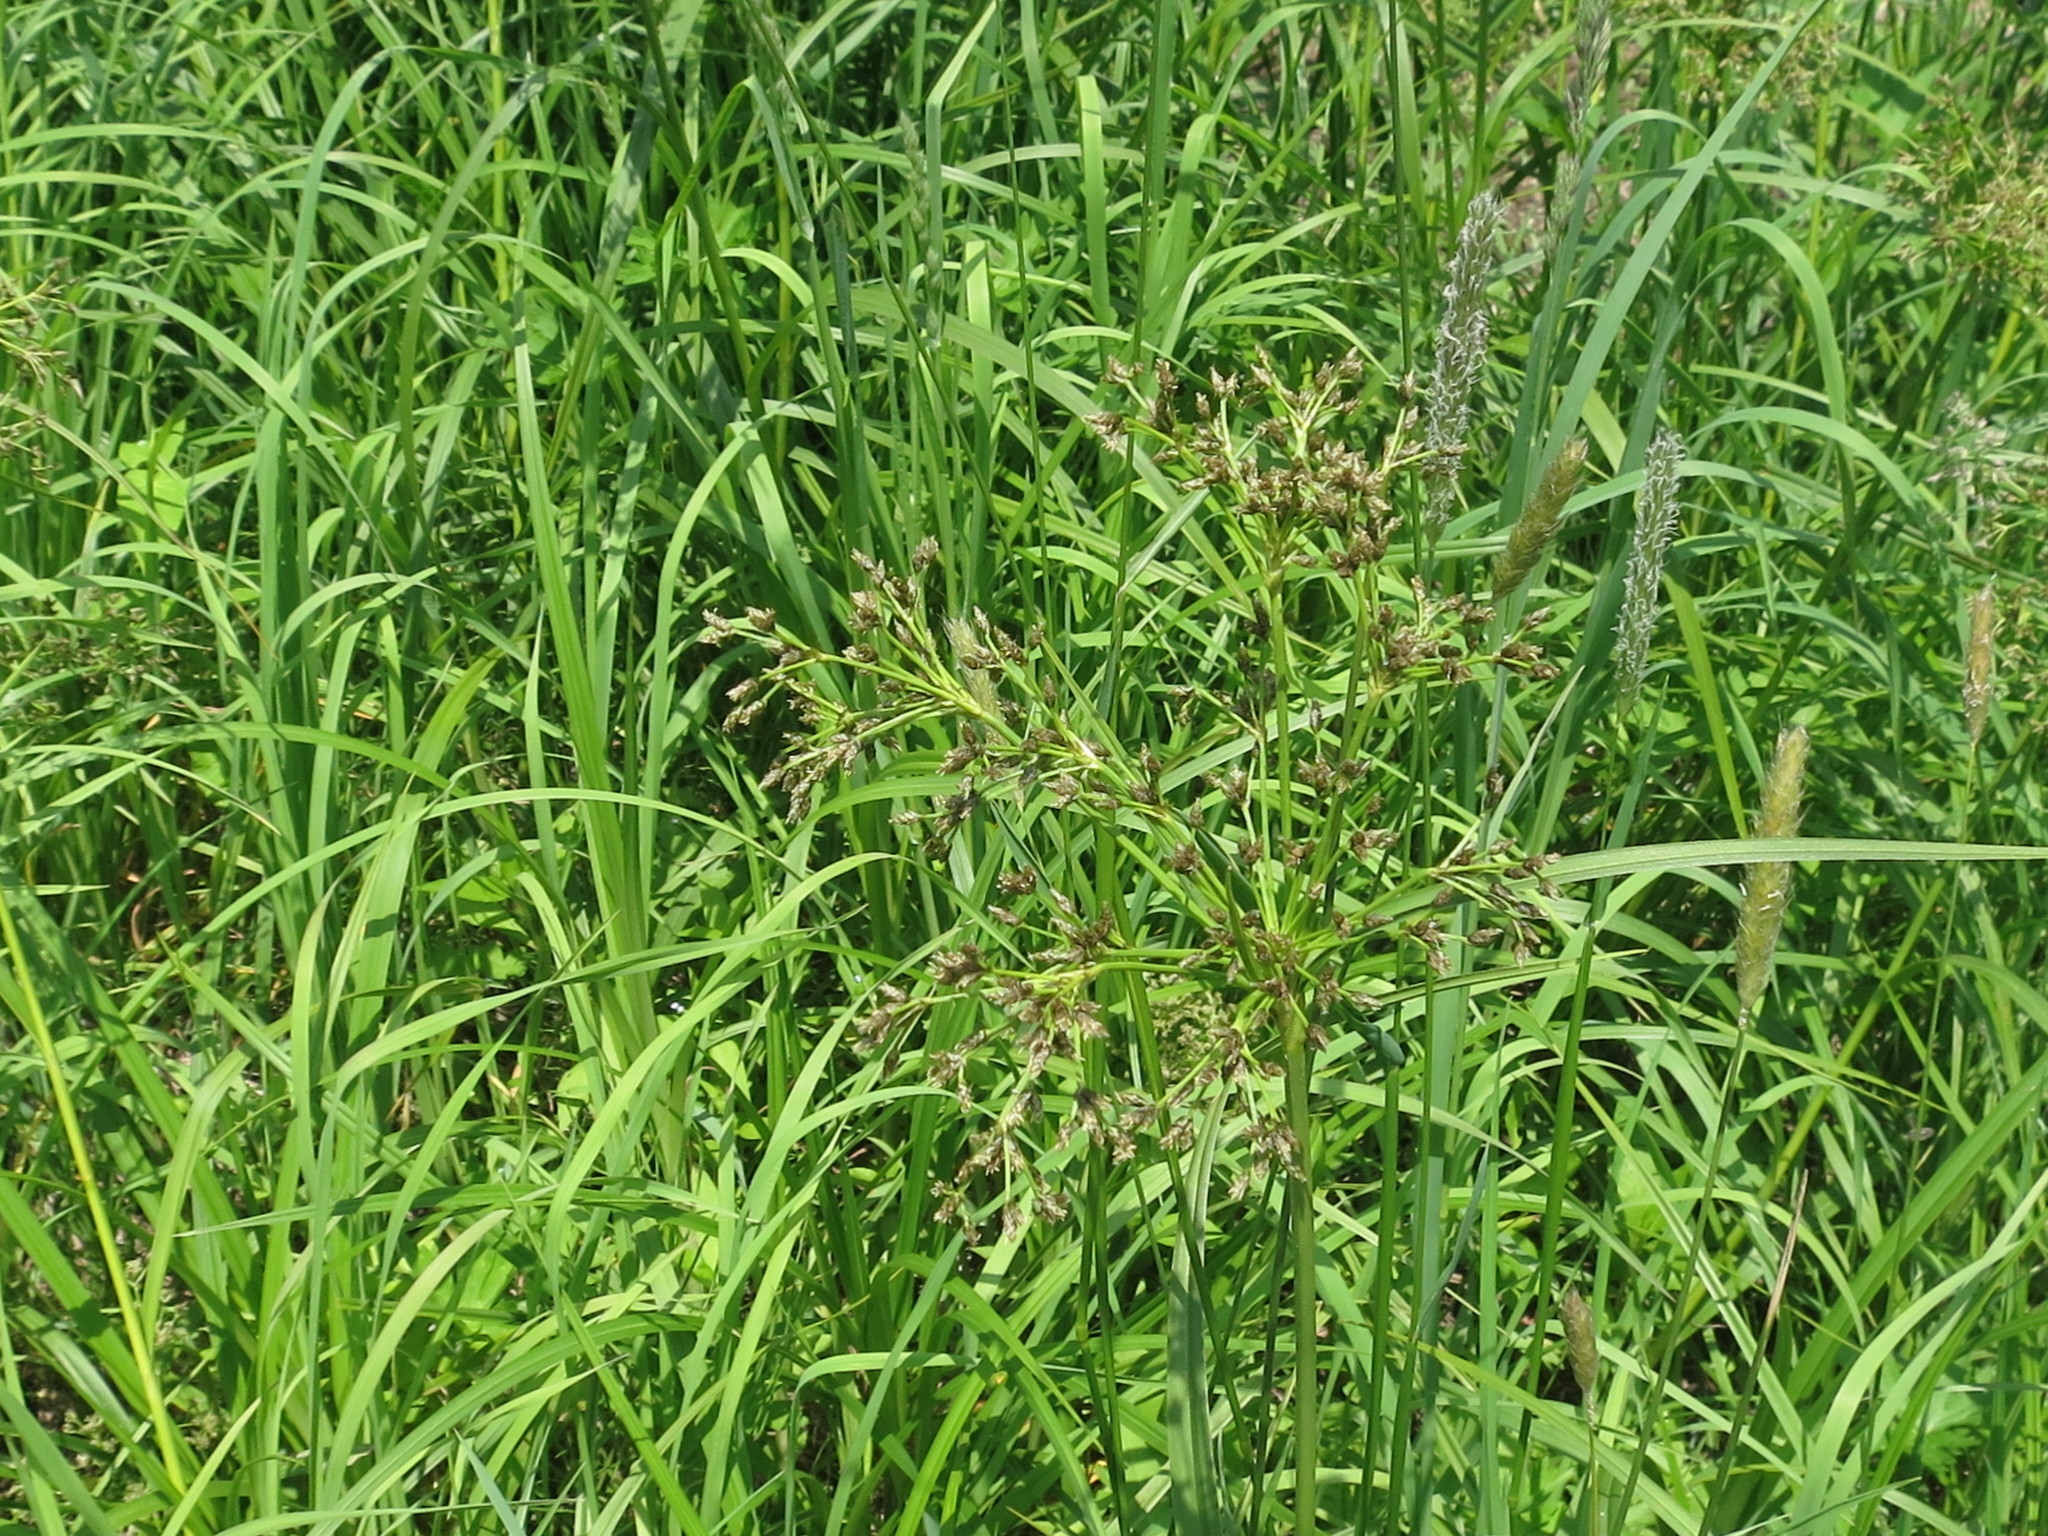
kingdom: Plantae
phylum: Tracheophyta
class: Liliopsida
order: Poales
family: Cyperaceae
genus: Scirpus
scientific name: Scirpus radicans
